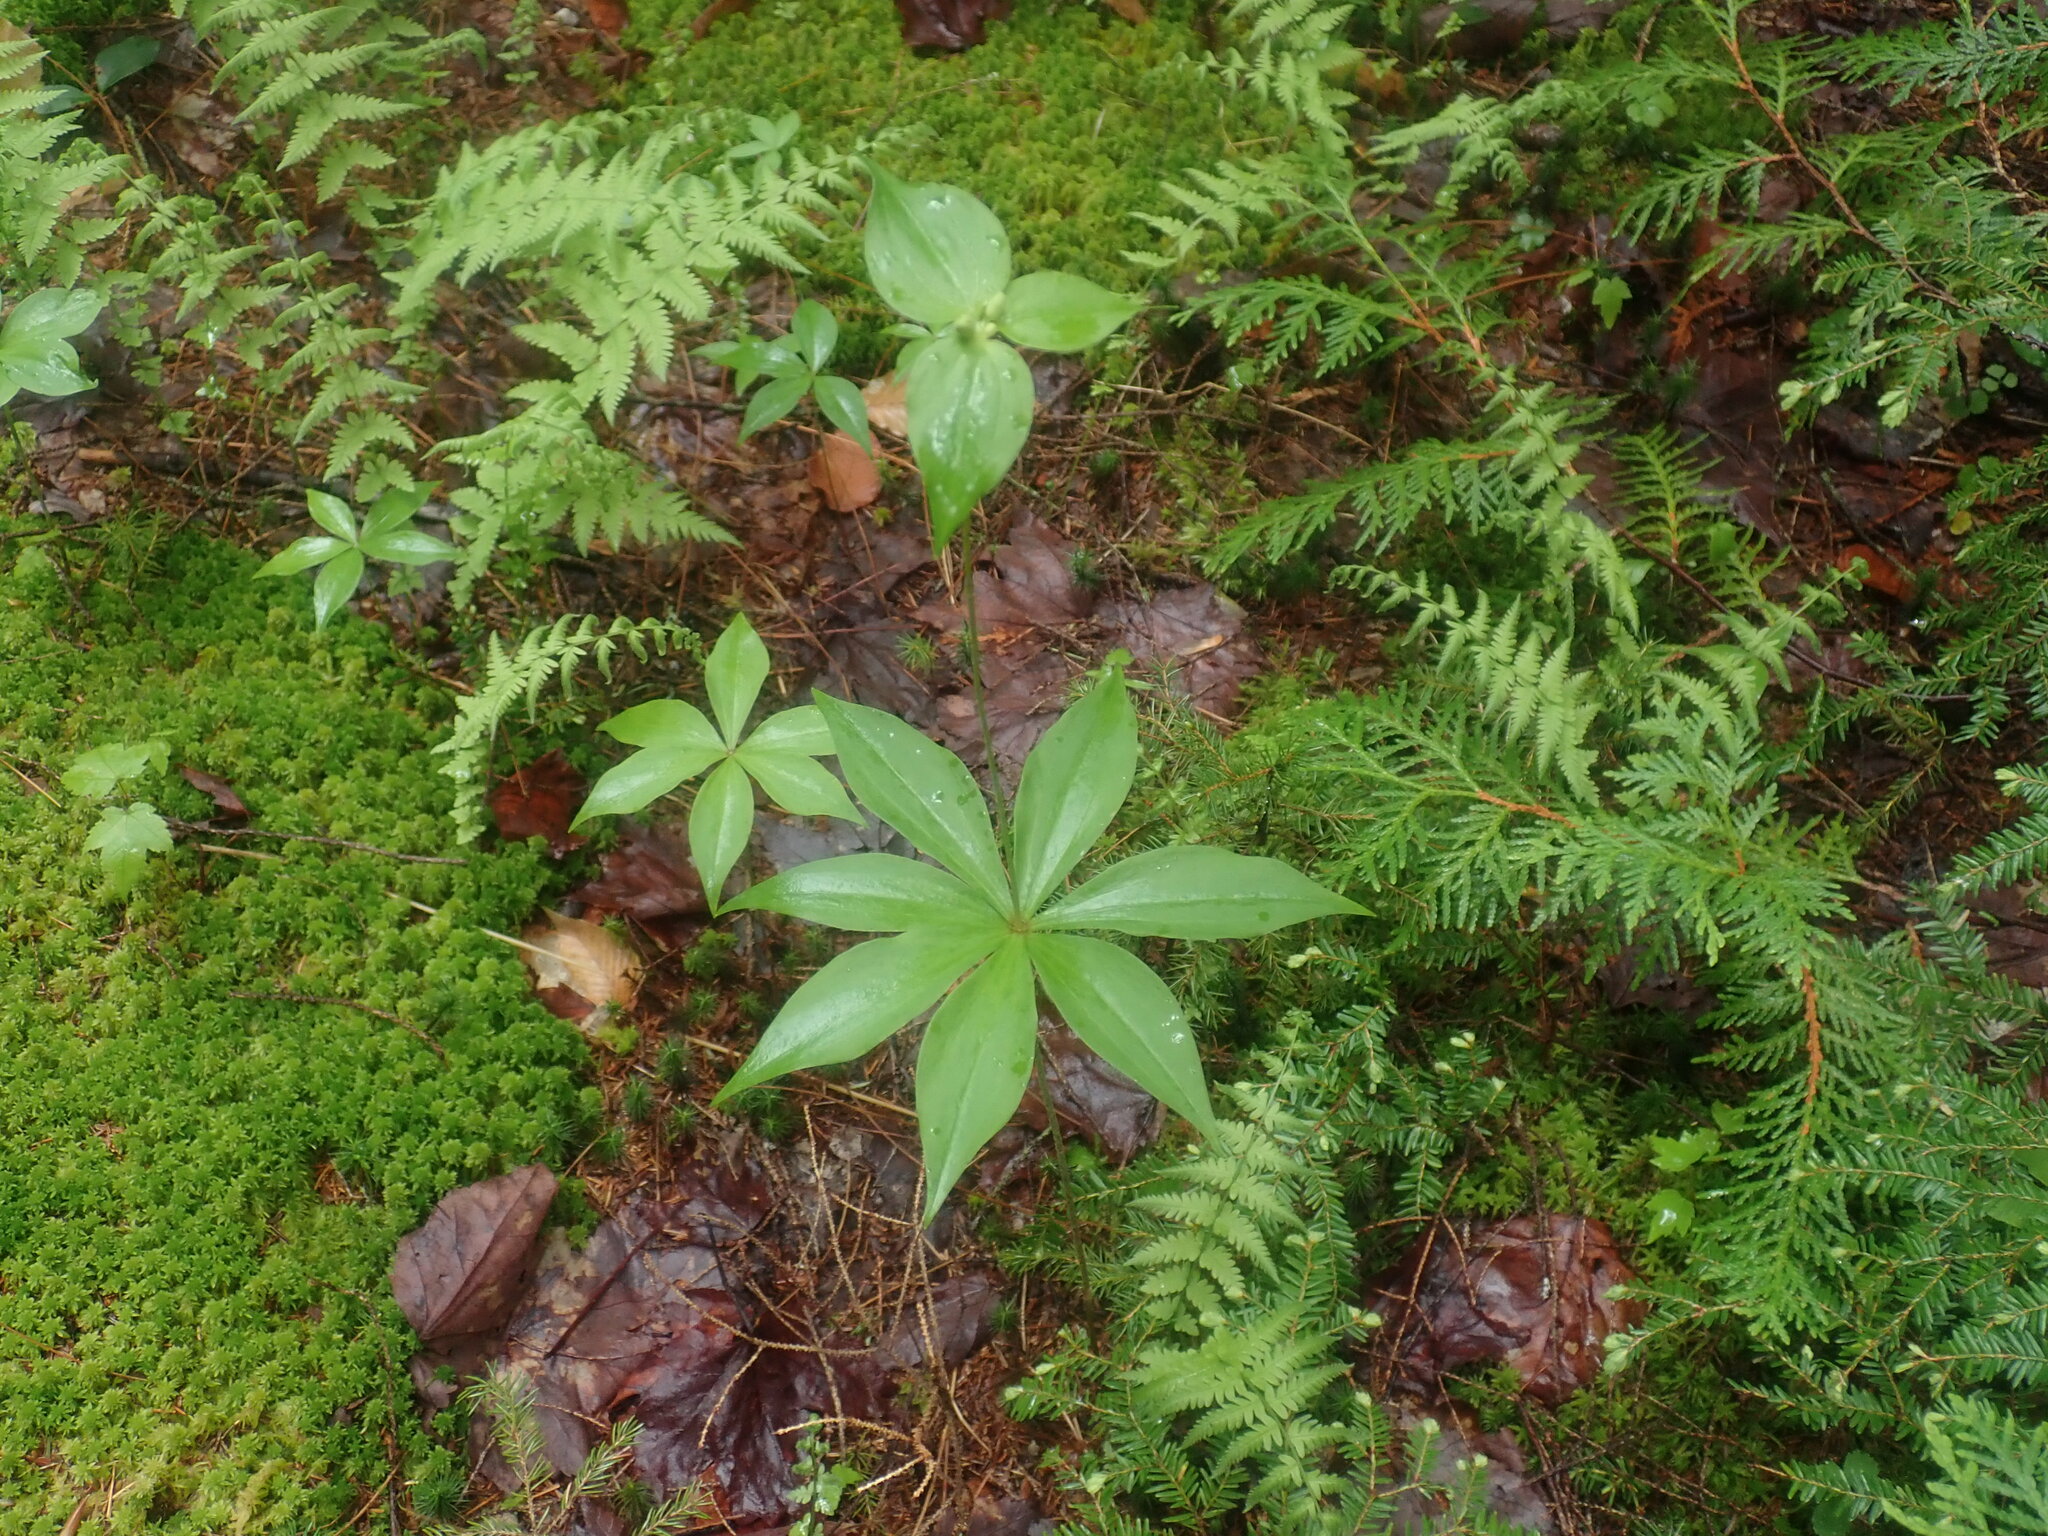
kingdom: Plantae
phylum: Tracheophyta
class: Liliopsida
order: Liliales
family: Liliaceae
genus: Medeola
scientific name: Medeola virginiana
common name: Indian cucumber-root
